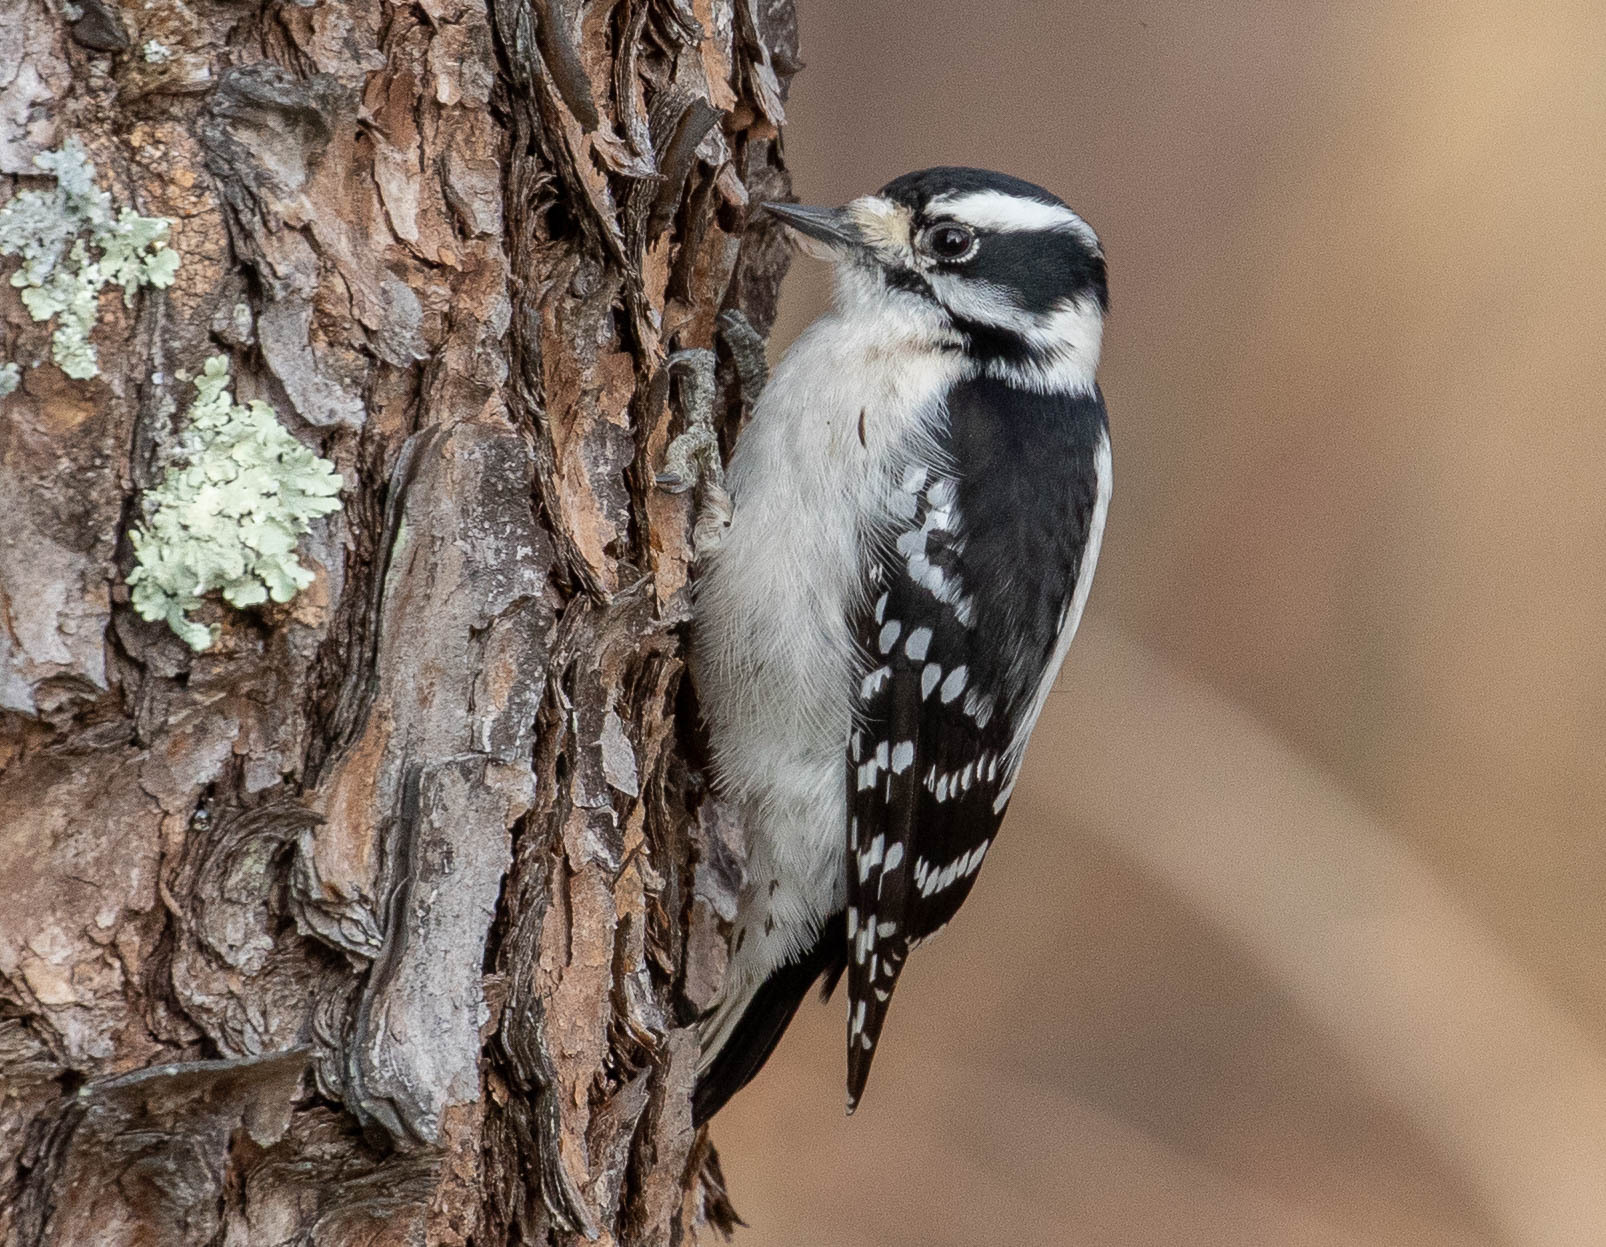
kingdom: Animalia
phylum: Chordata
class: Aves
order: Piciformes
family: Picidae
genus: Dryobates
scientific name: Dryobates pubescens
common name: Downy woodpecker
